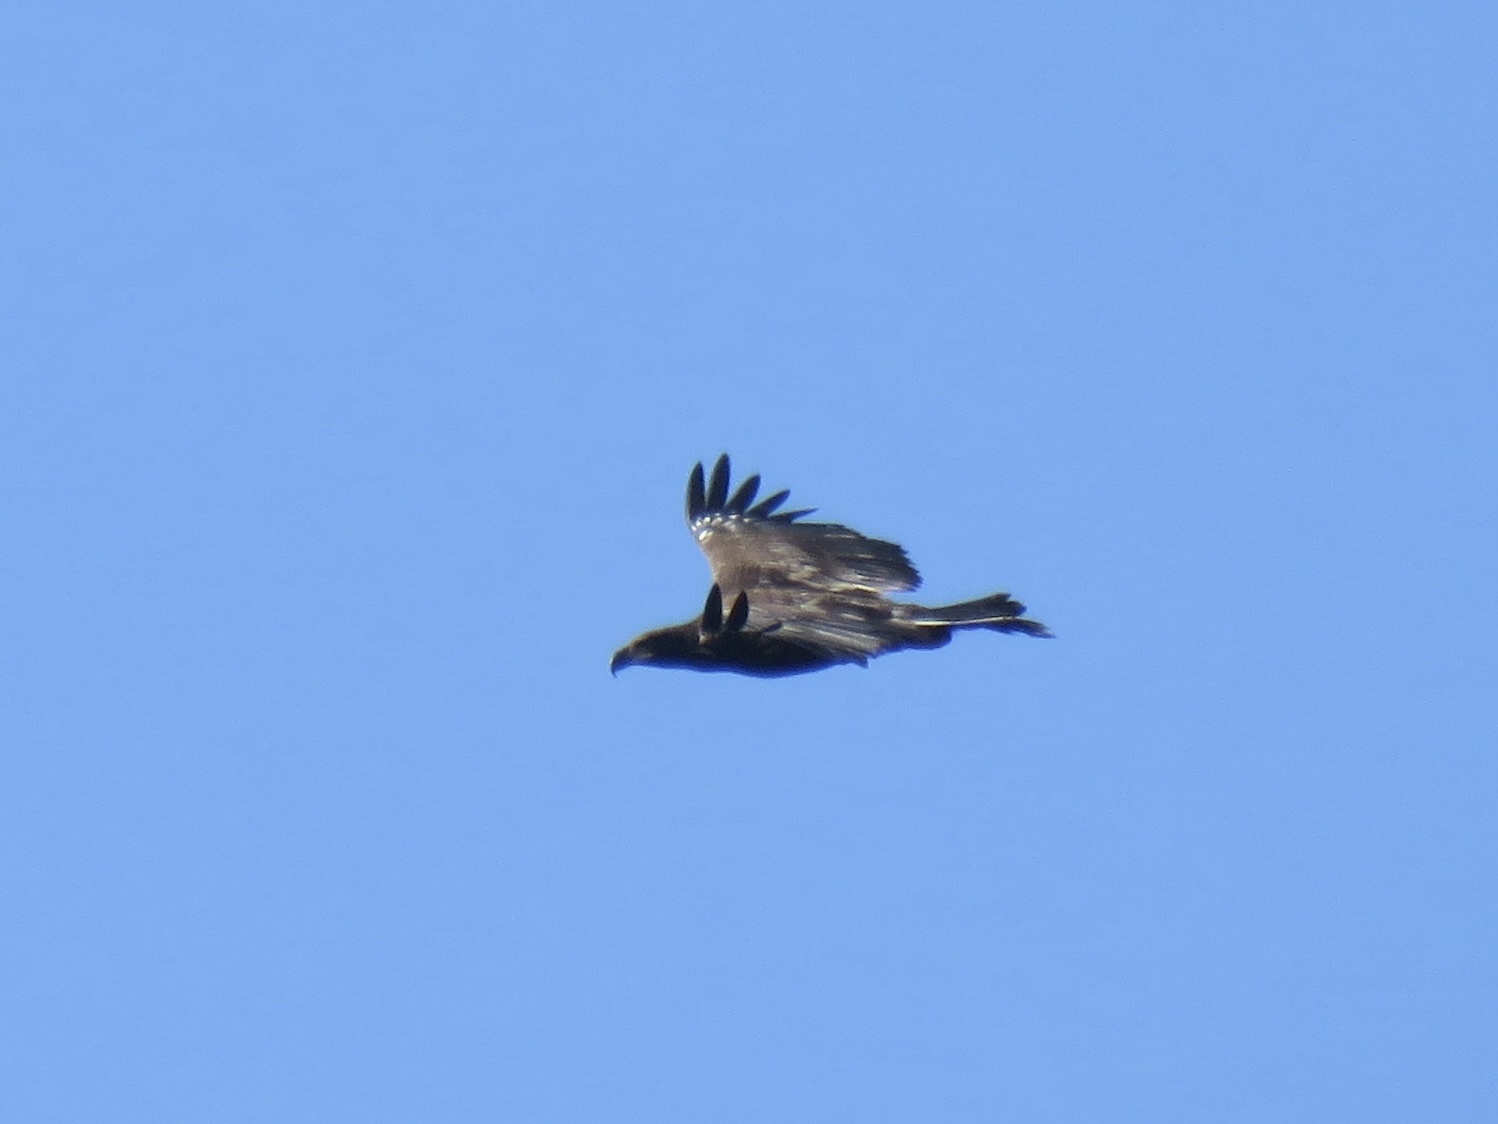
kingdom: Animalia
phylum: Chordata
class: Aves
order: Accipitriformes
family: Accipitridae
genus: Haliaeetus
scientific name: Haliaeetus leucocephalus
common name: Bald eagle
